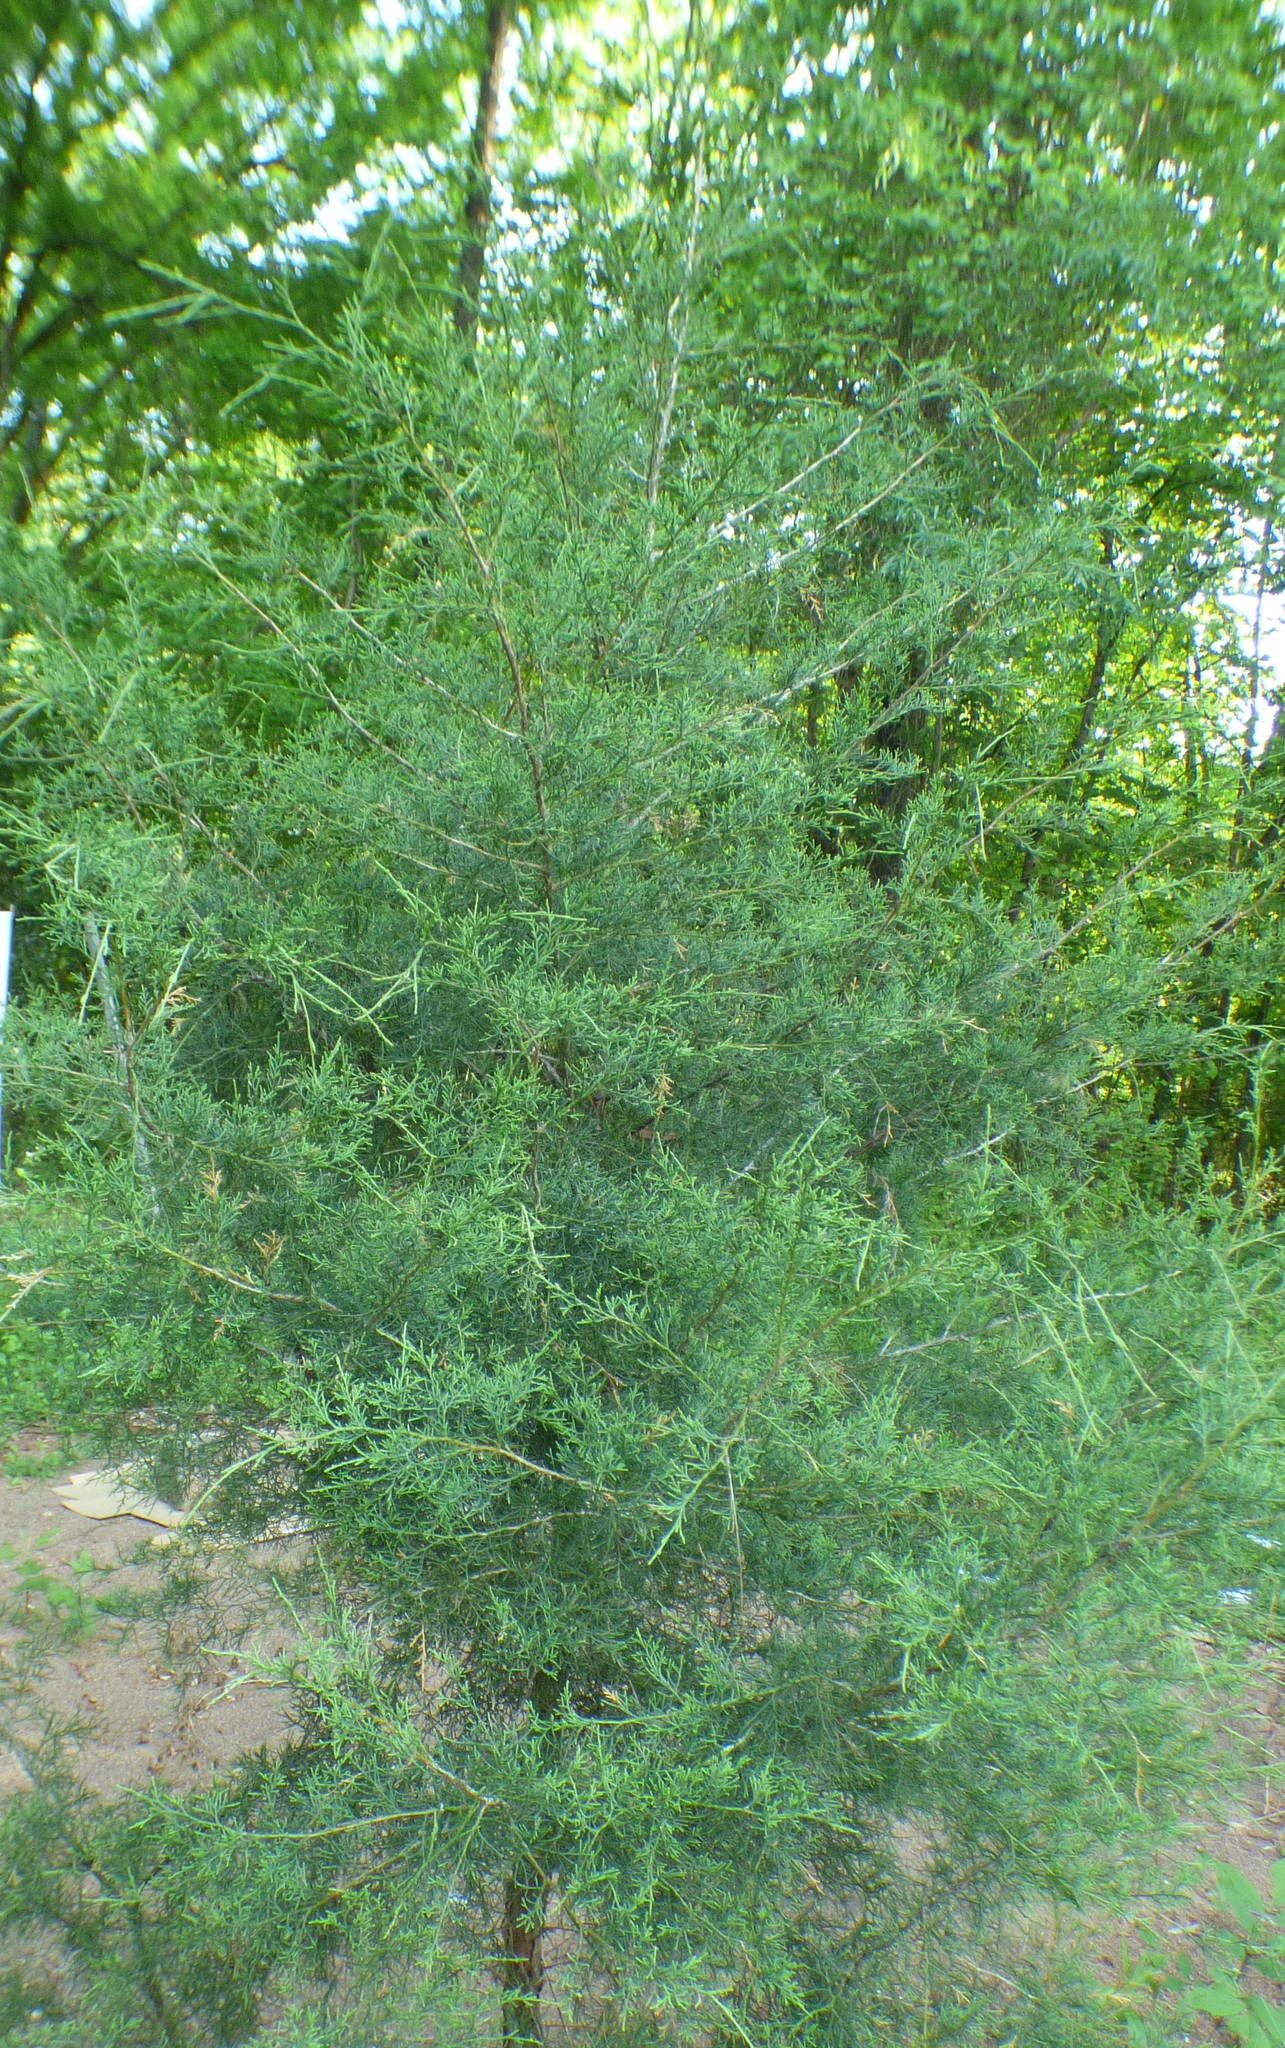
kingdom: Plantae
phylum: Tracheophyta
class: Pinopsida
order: Pinales
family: Cupressaceae
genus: Juniperus
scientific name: Juniperus virginiana
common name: Red juniper
